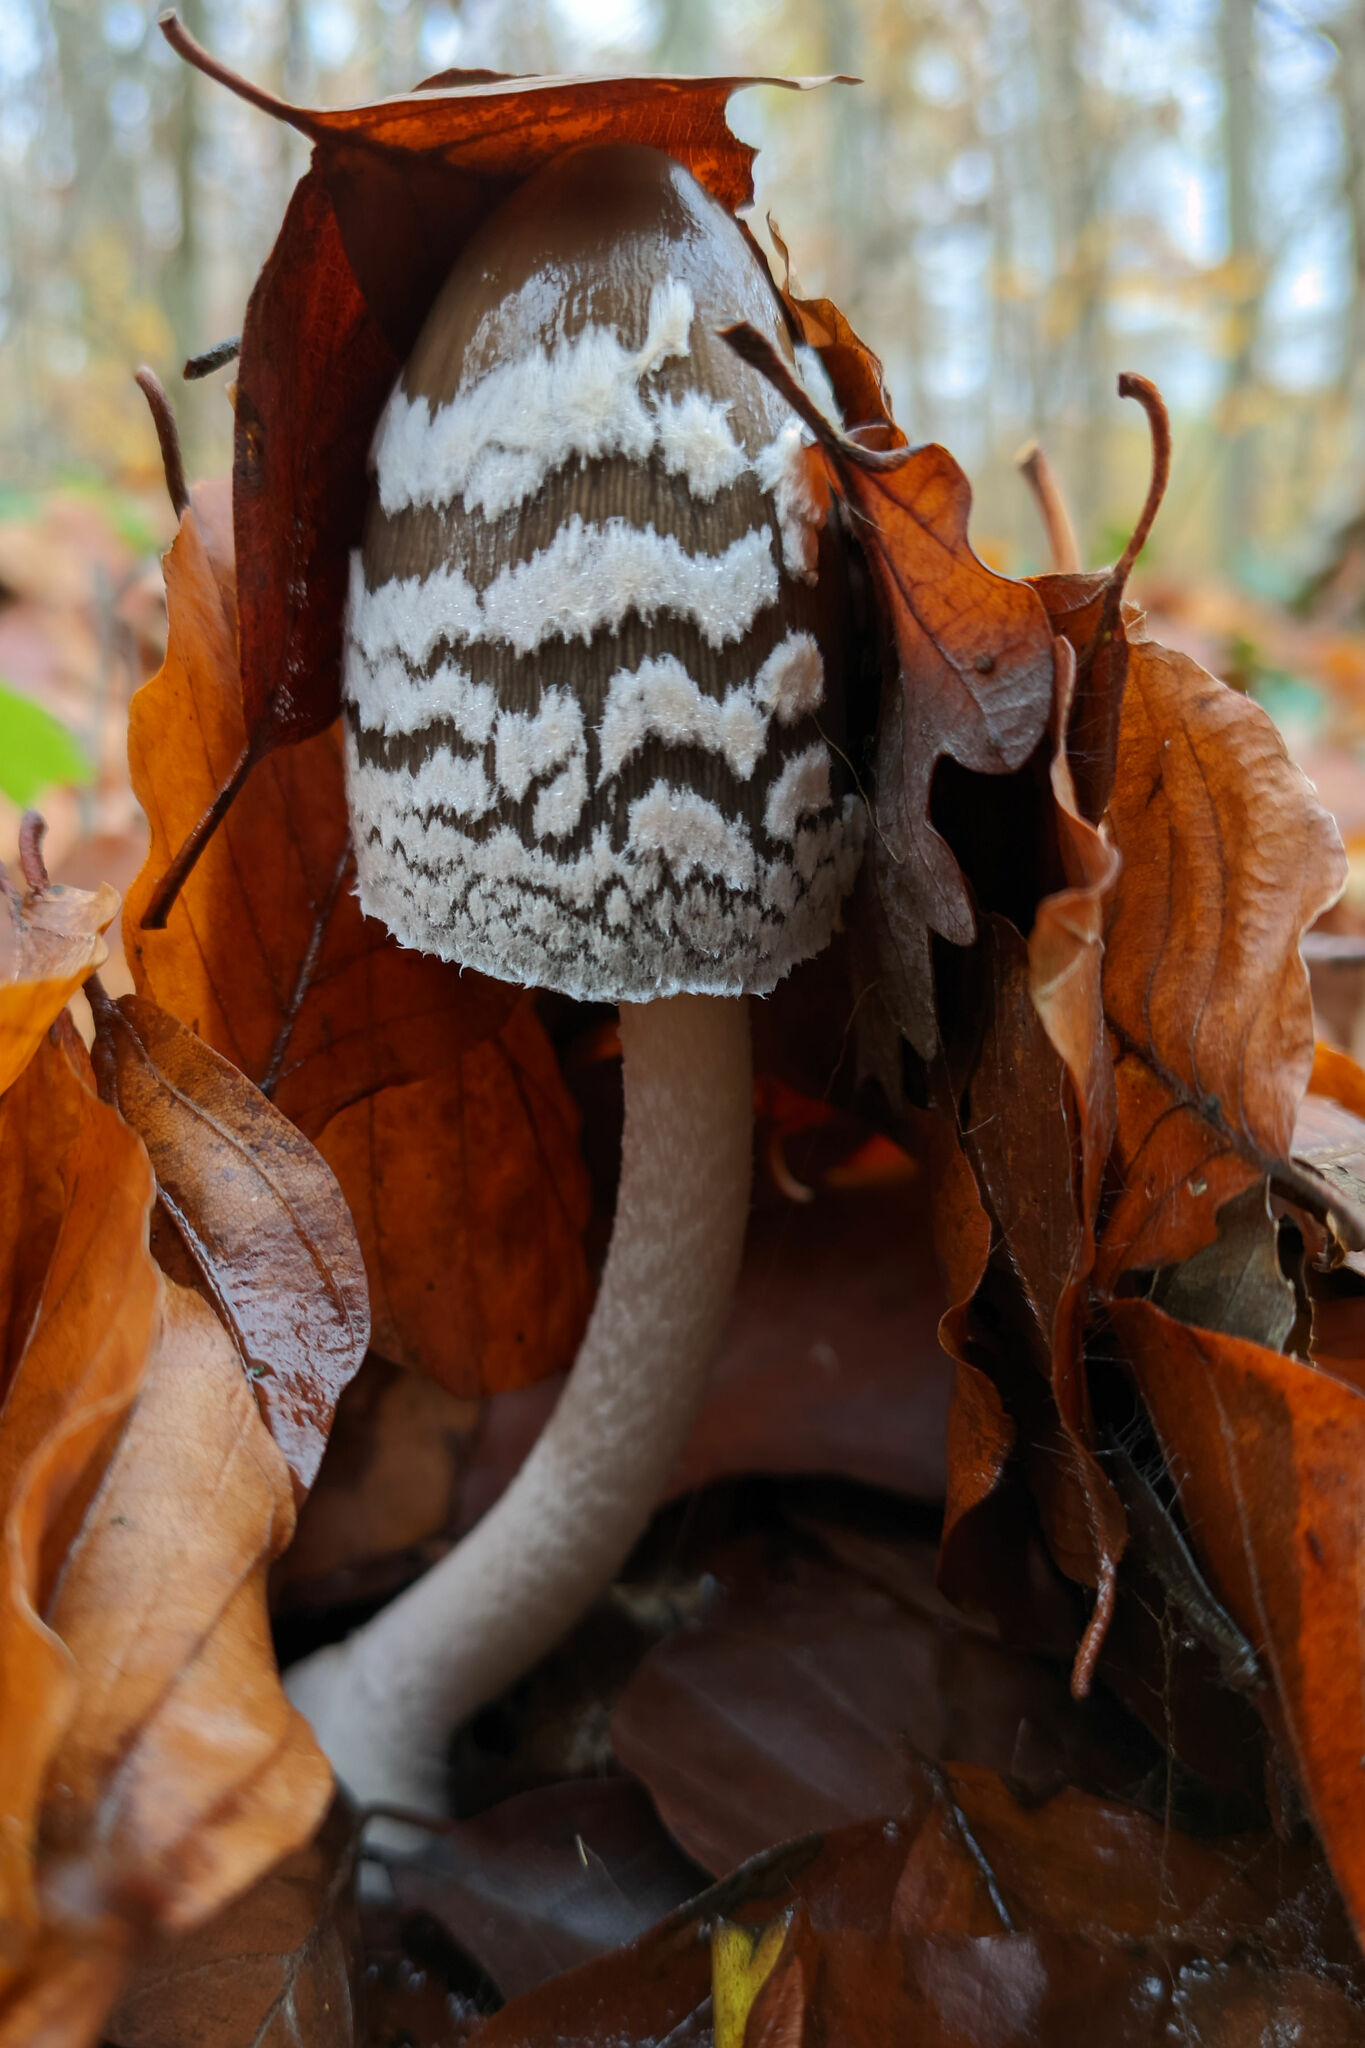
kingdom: Fungi
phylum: Basidiomycota
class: Agaricomycetes
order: Agaricales
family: Psathyrellaceae
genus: Coprinopsis
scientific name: Coprinopsis picacea
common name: Magpie inkcap
